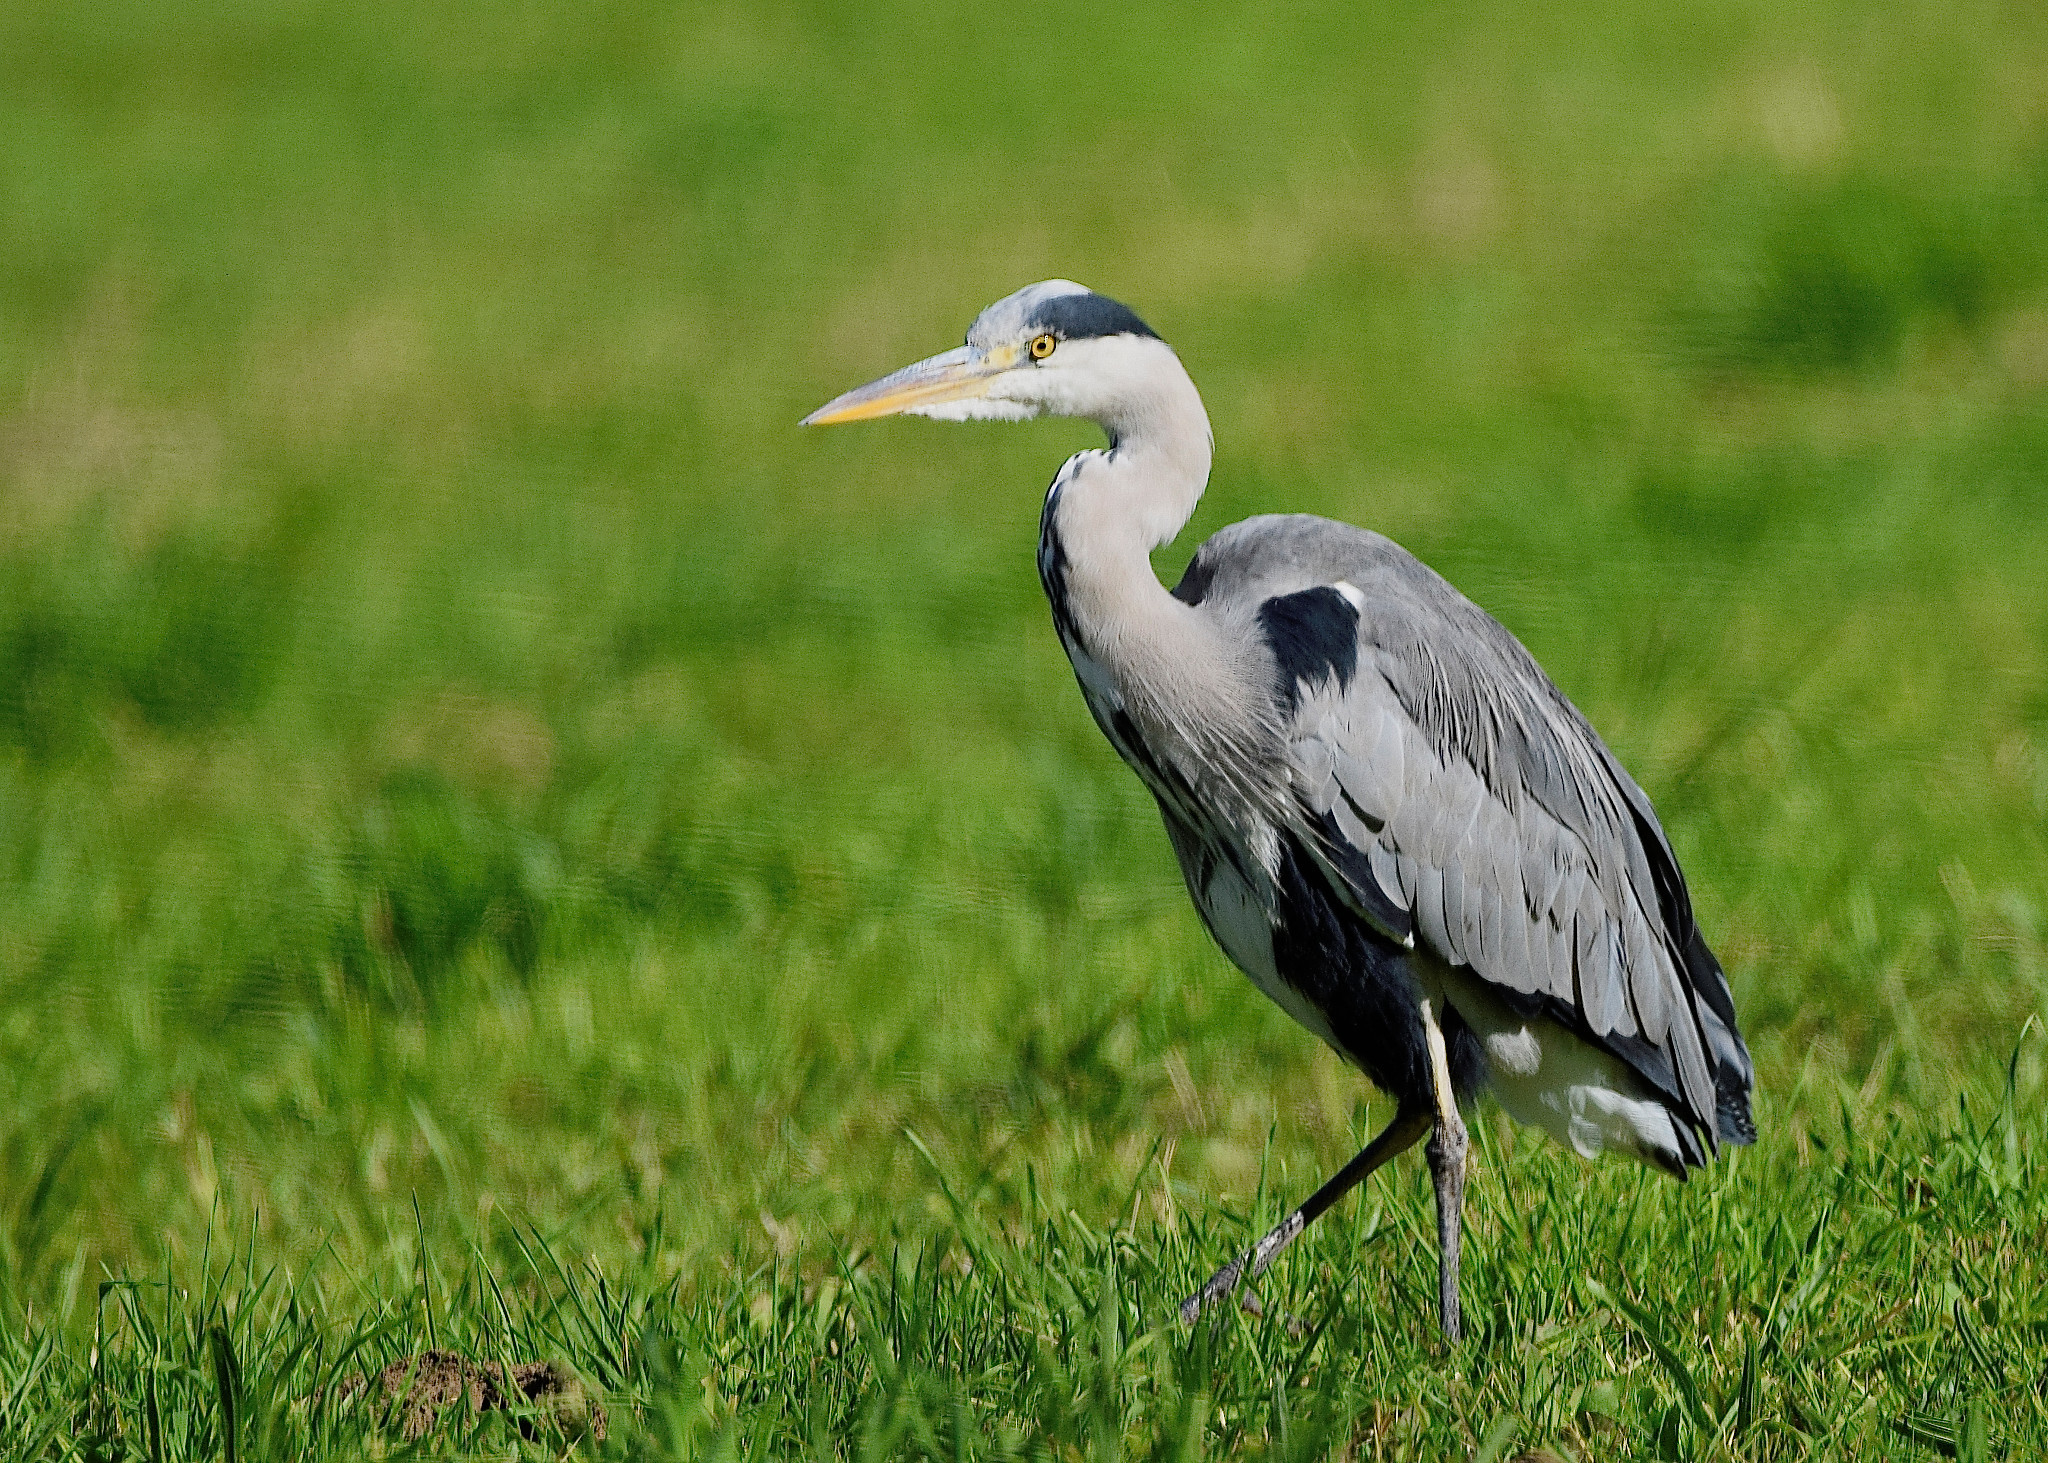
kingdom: Animalia
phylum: Chordata
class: Aves
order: Pelecaniformes
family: Ardeidae
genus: Ardea
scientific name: Ardea cinerea
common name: Grey heron
